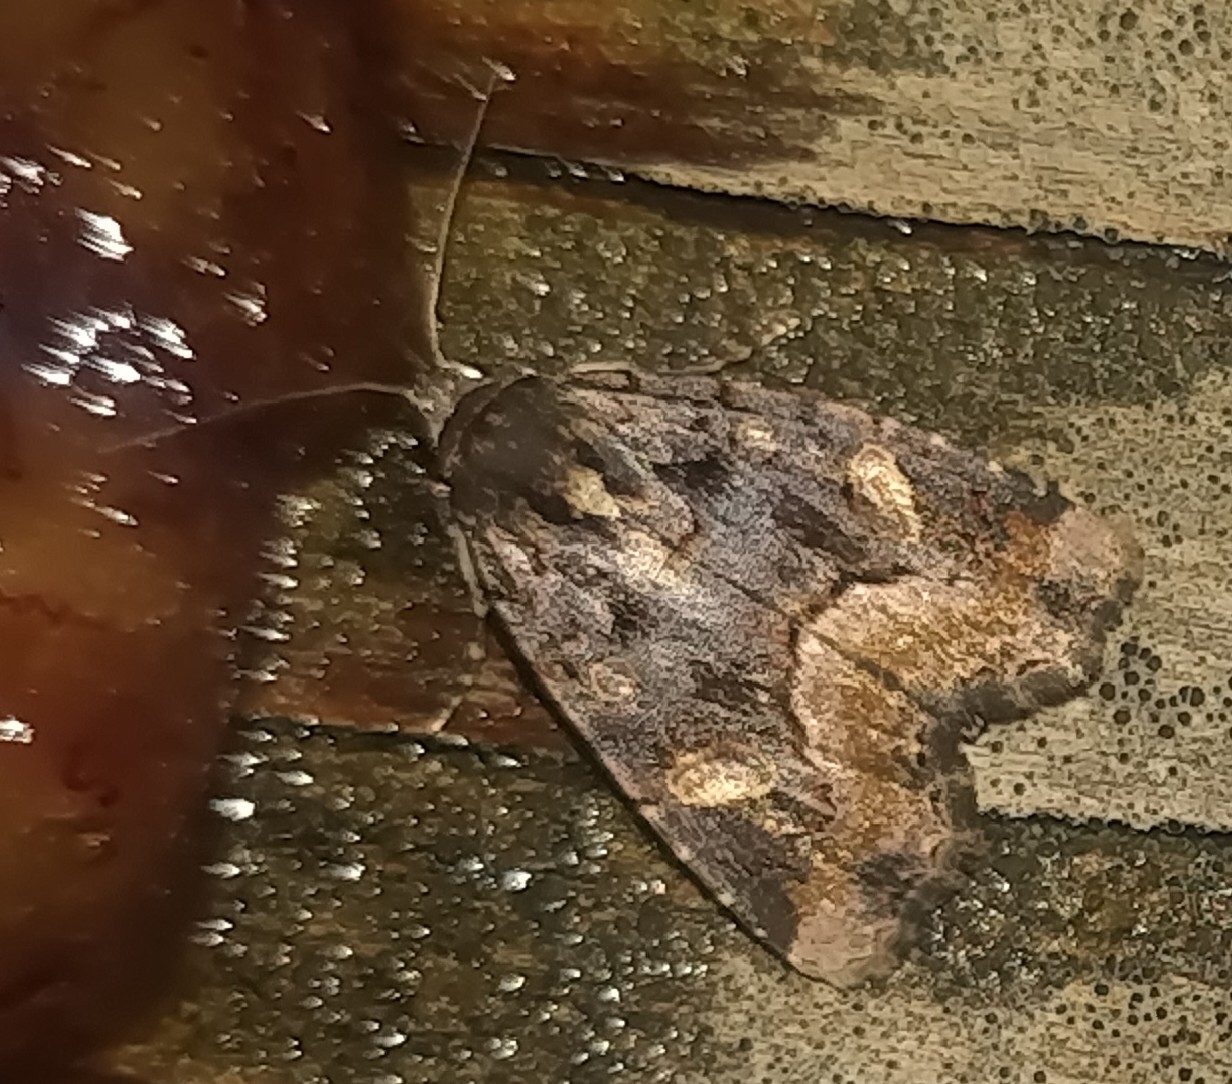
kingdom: Animalia
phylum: Arthropoda
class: Insecta
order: Lepidoptera
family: Noctuidae
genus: Homophoberia
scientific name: Homophoberia apicosa
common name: Black wedge-spot
